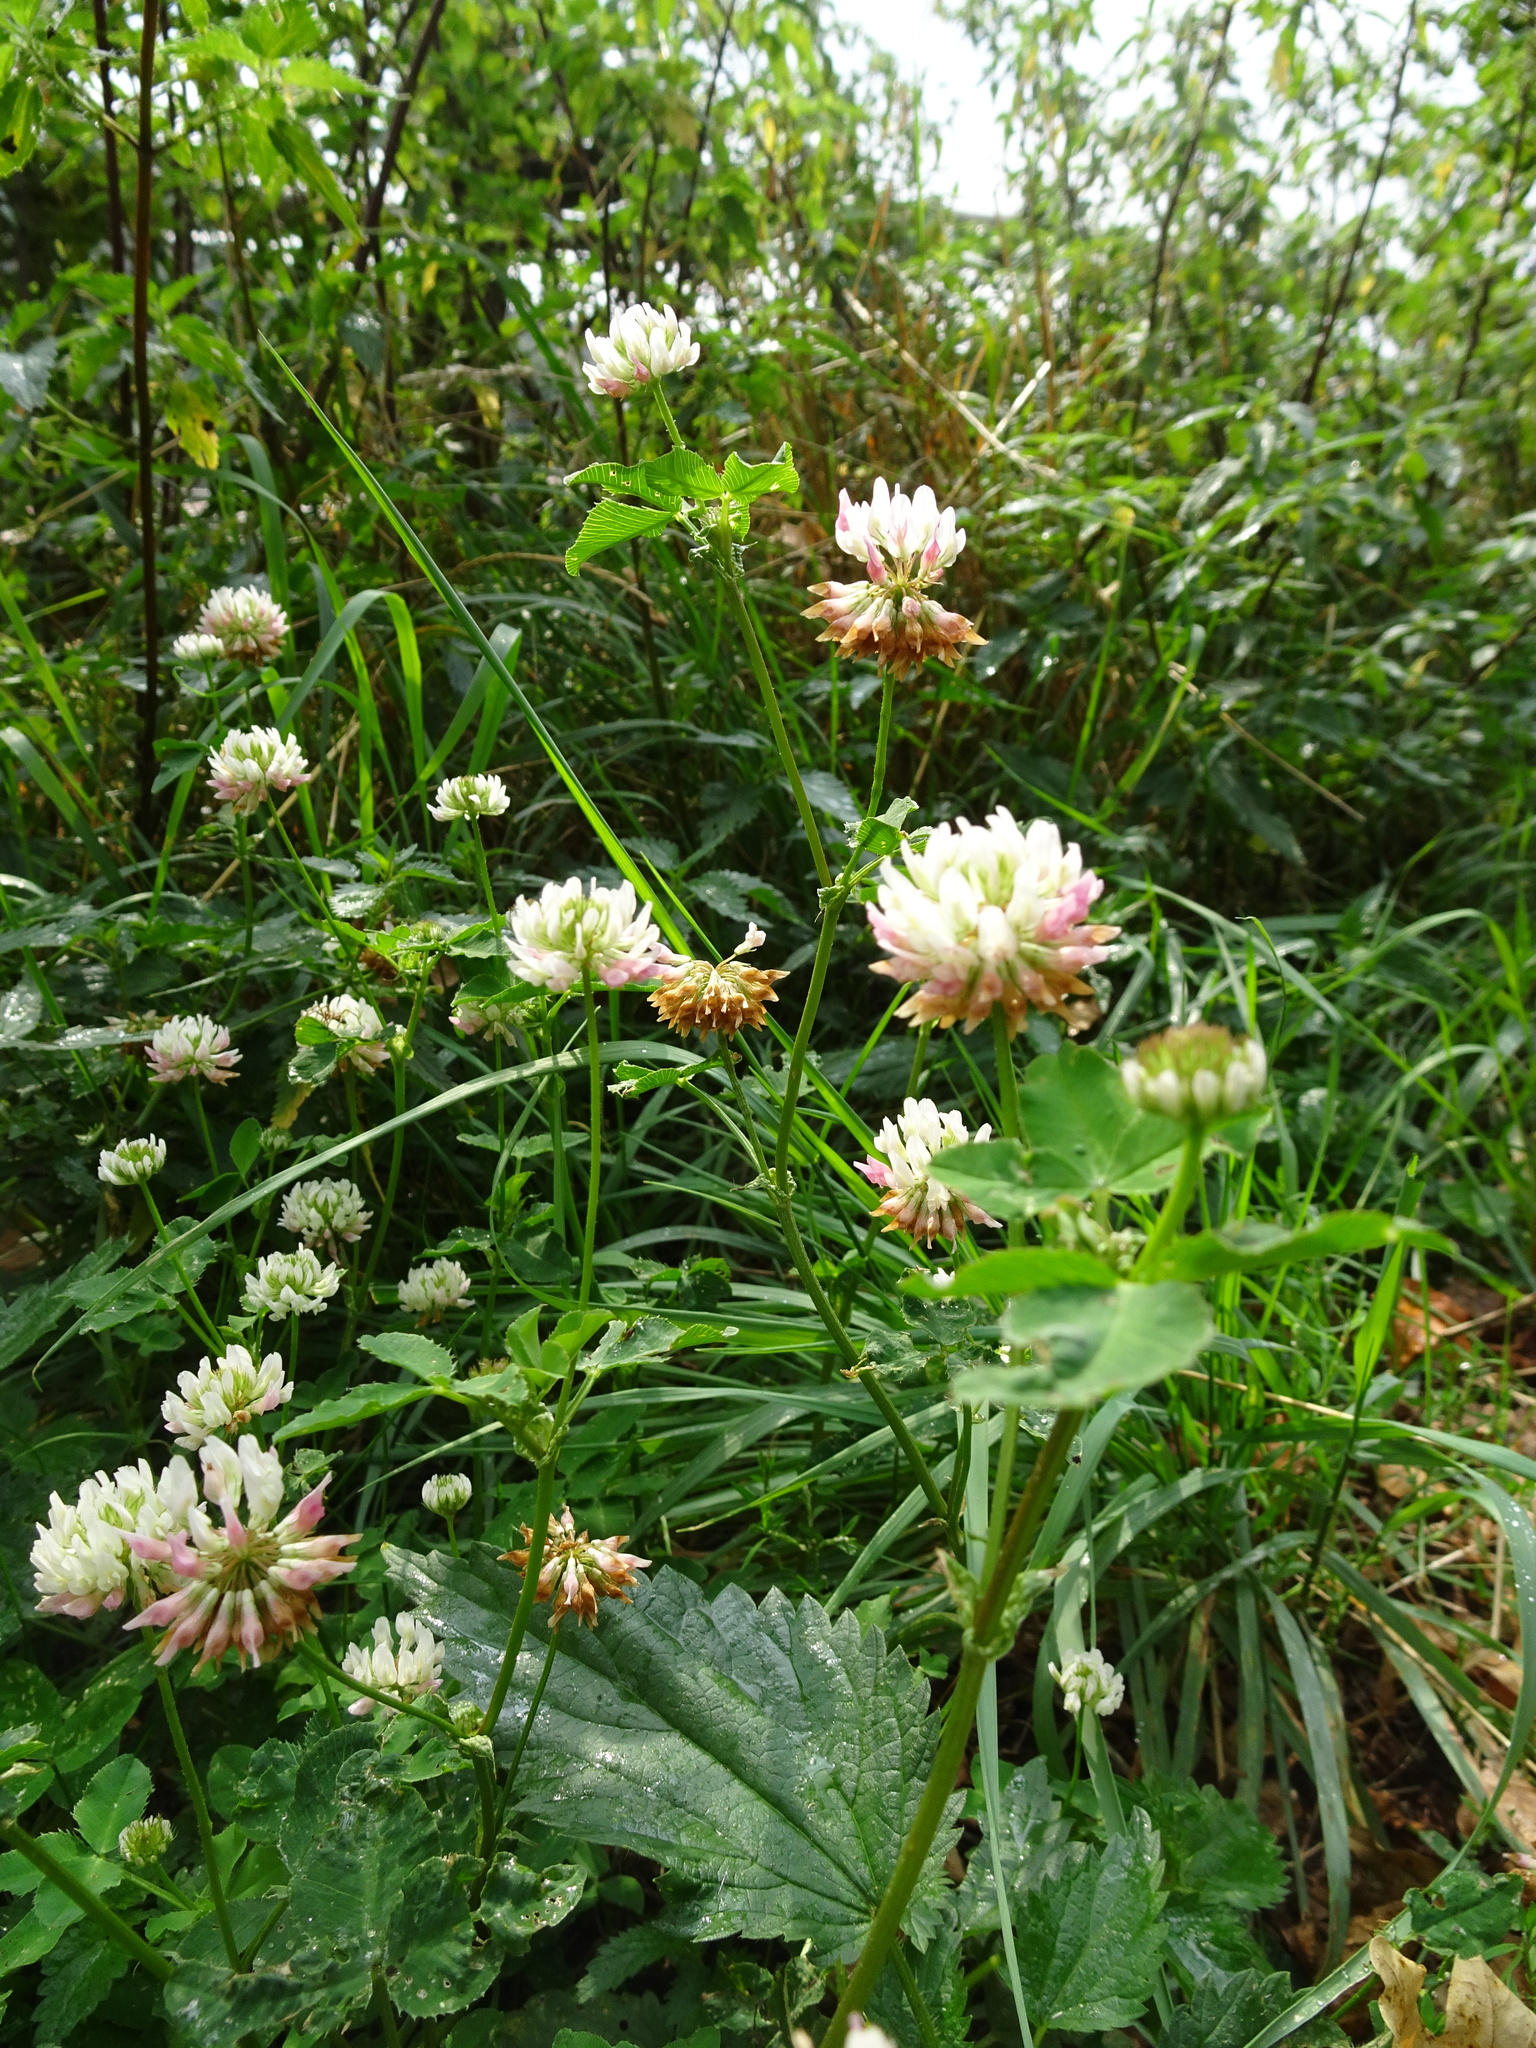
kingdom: Plantae
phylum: Tracheophyta
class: Magnoliopsida
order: Fabales
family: Fabaceae
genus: Trifolium
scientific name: Trifolium hybridum
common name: Alsike clover
